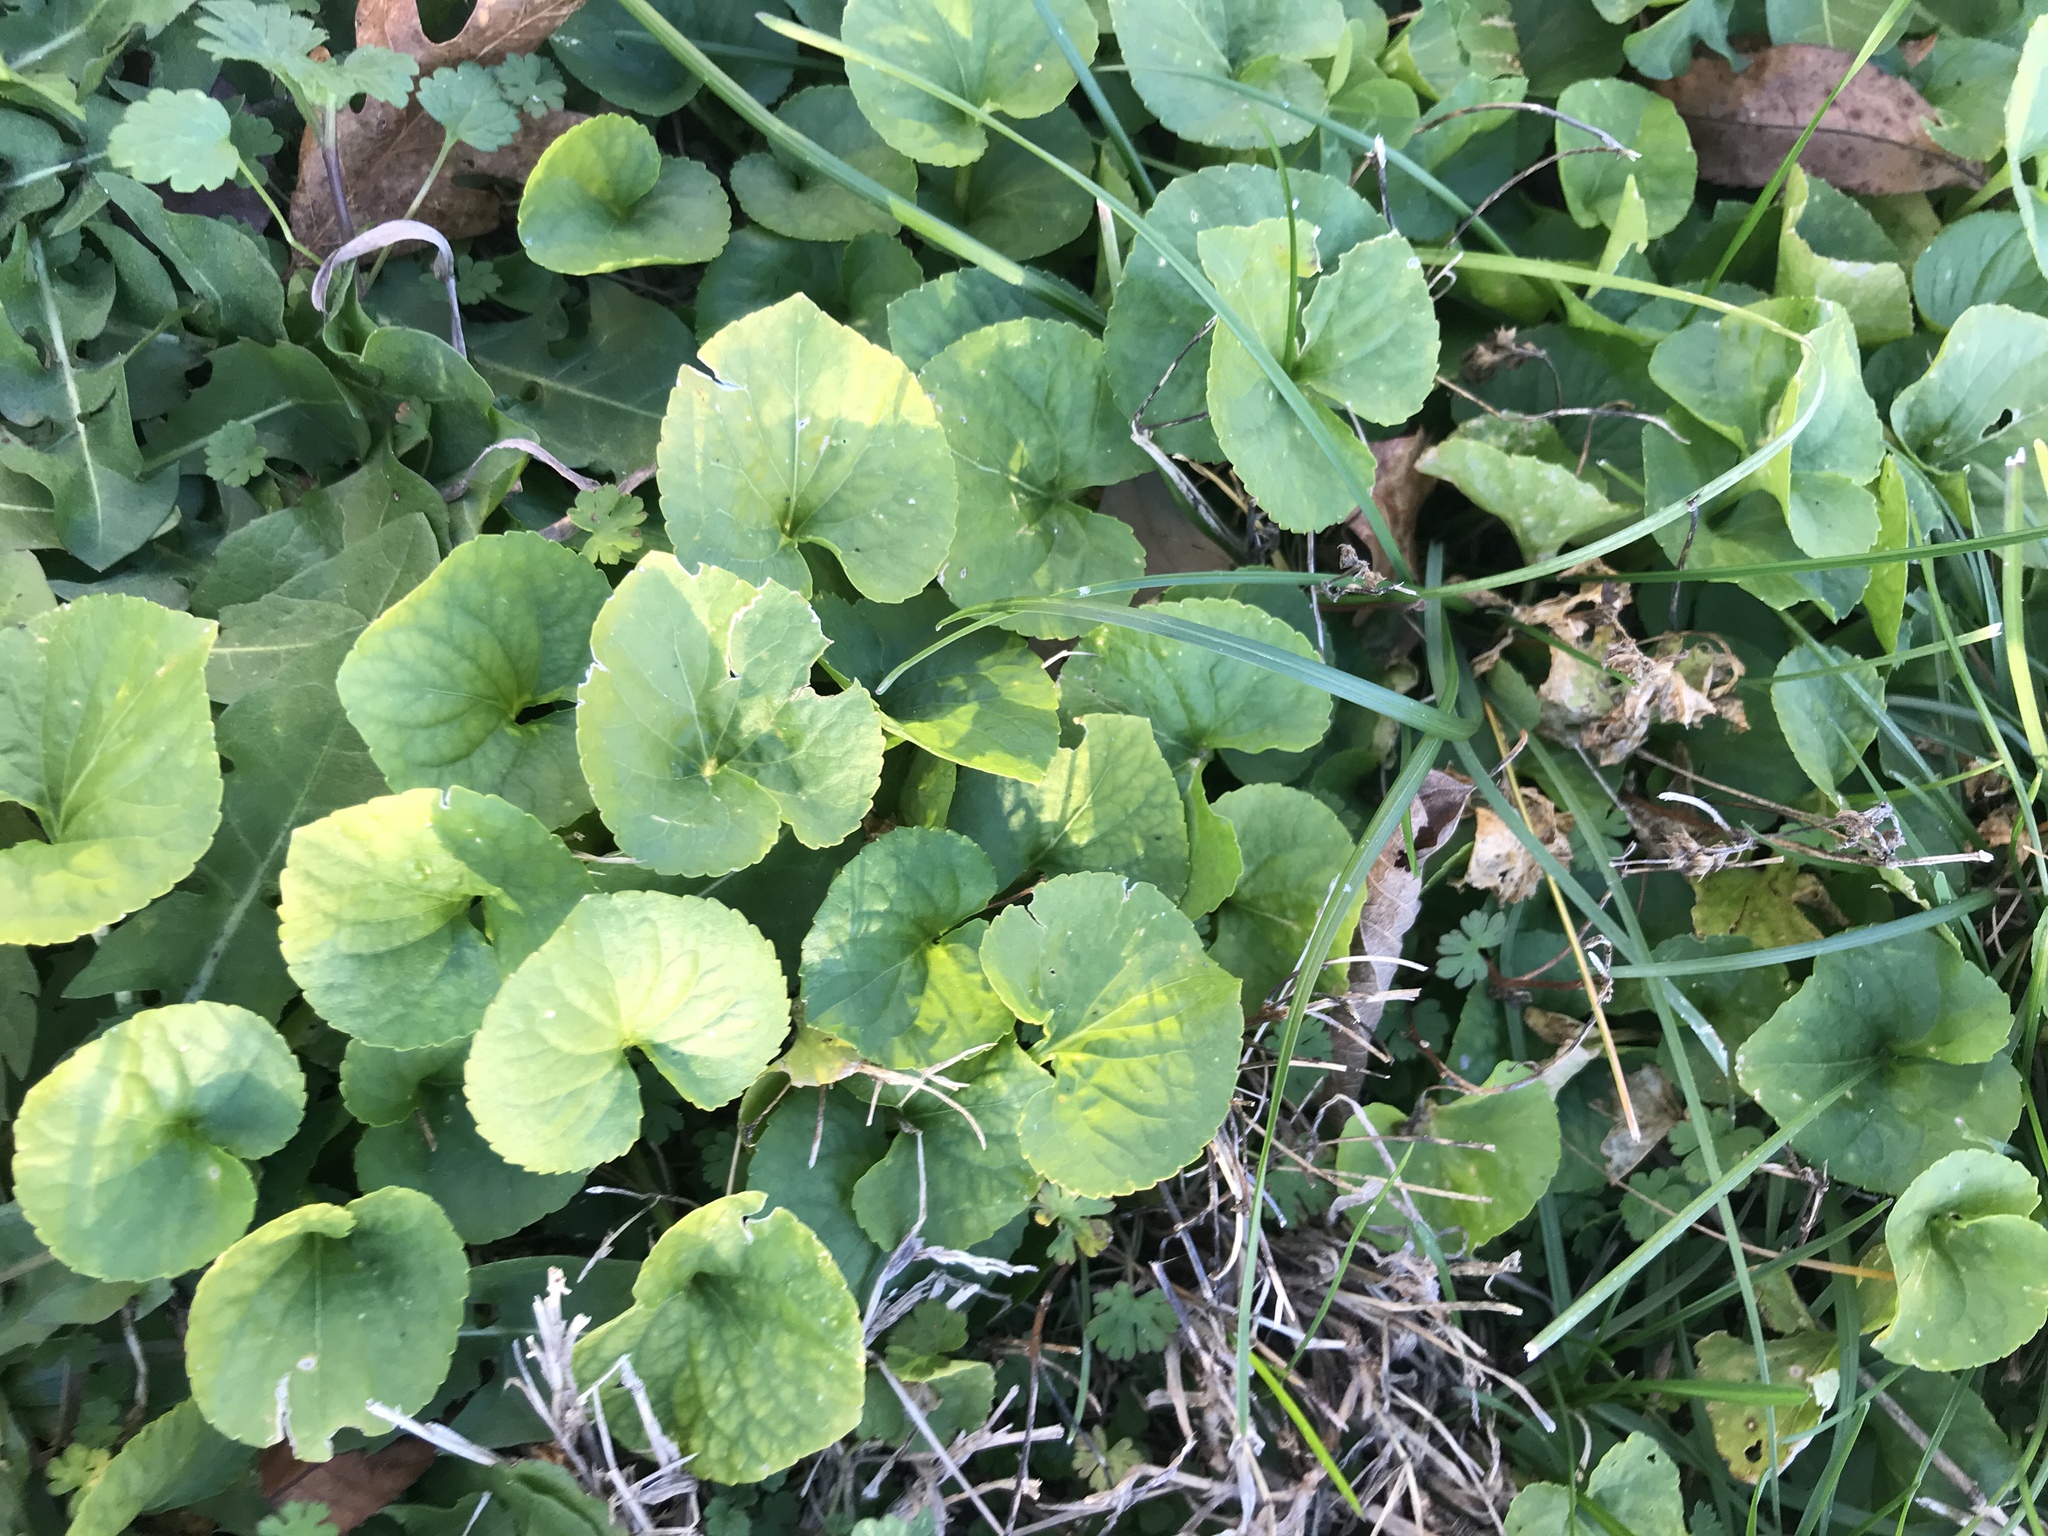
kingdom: Plantae
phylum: Tracheophyta
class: Magnoliopsida
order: Malpighiales
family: Violaceae
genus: Viola
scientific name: Viola sororia
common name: Dooryard violet
